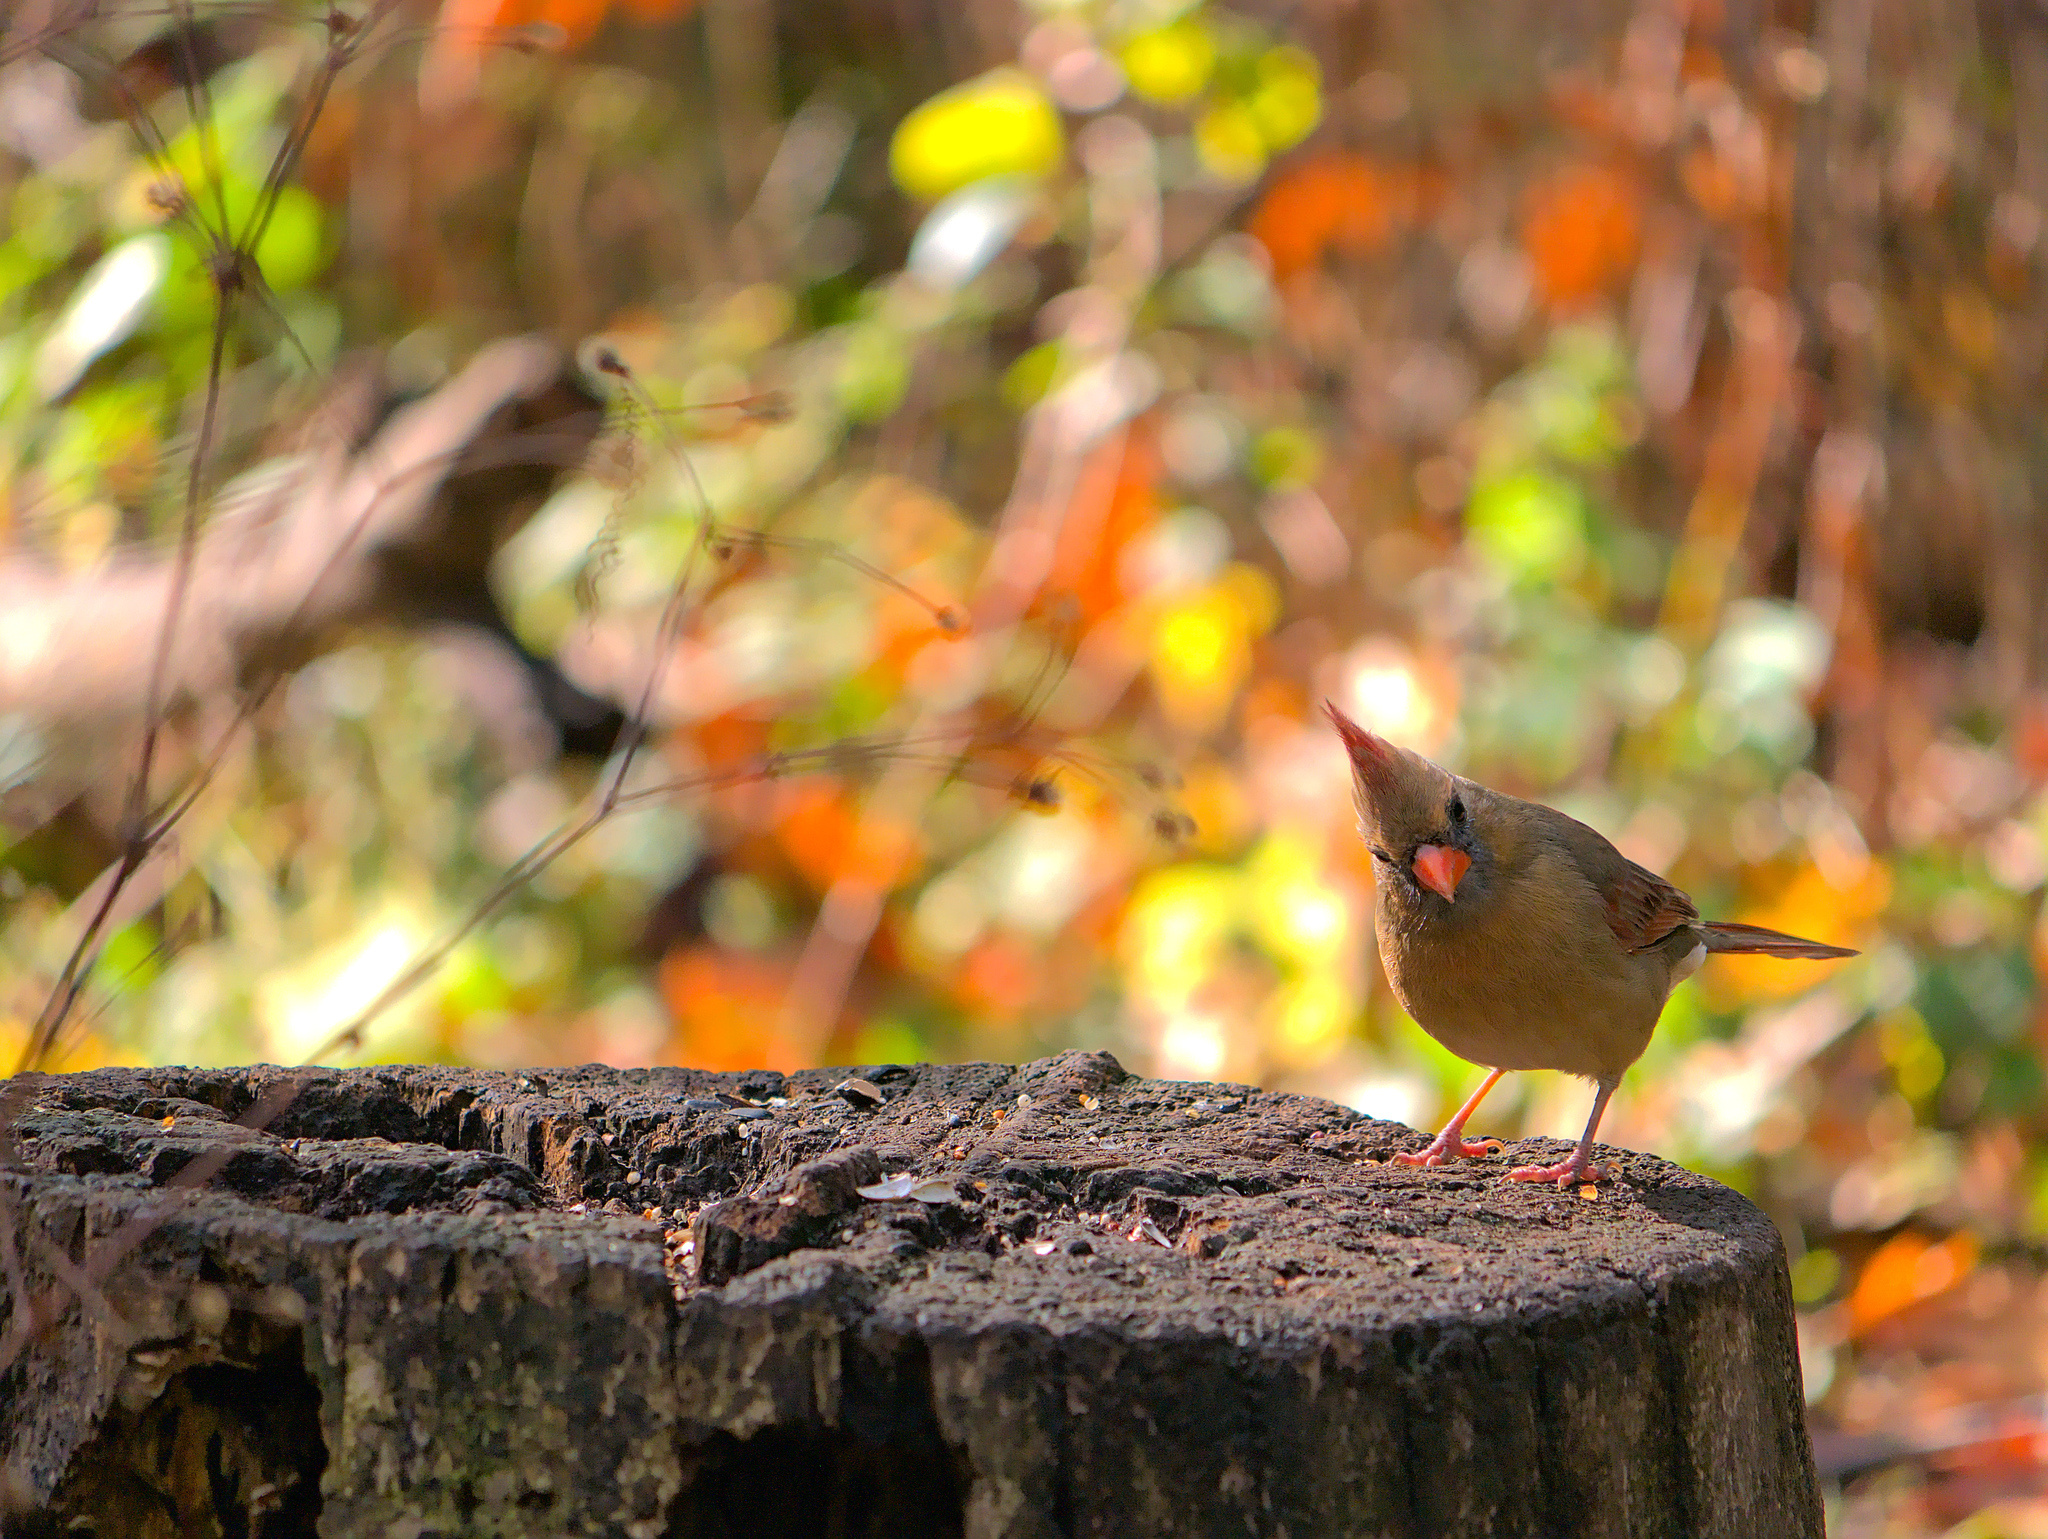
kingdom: Animalia
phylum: Chordata
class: Aves
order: Passeriformes
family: Cardinalidae
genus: Cardinalis
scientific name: Cardinalis cardinalis
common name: Northern cardinal
